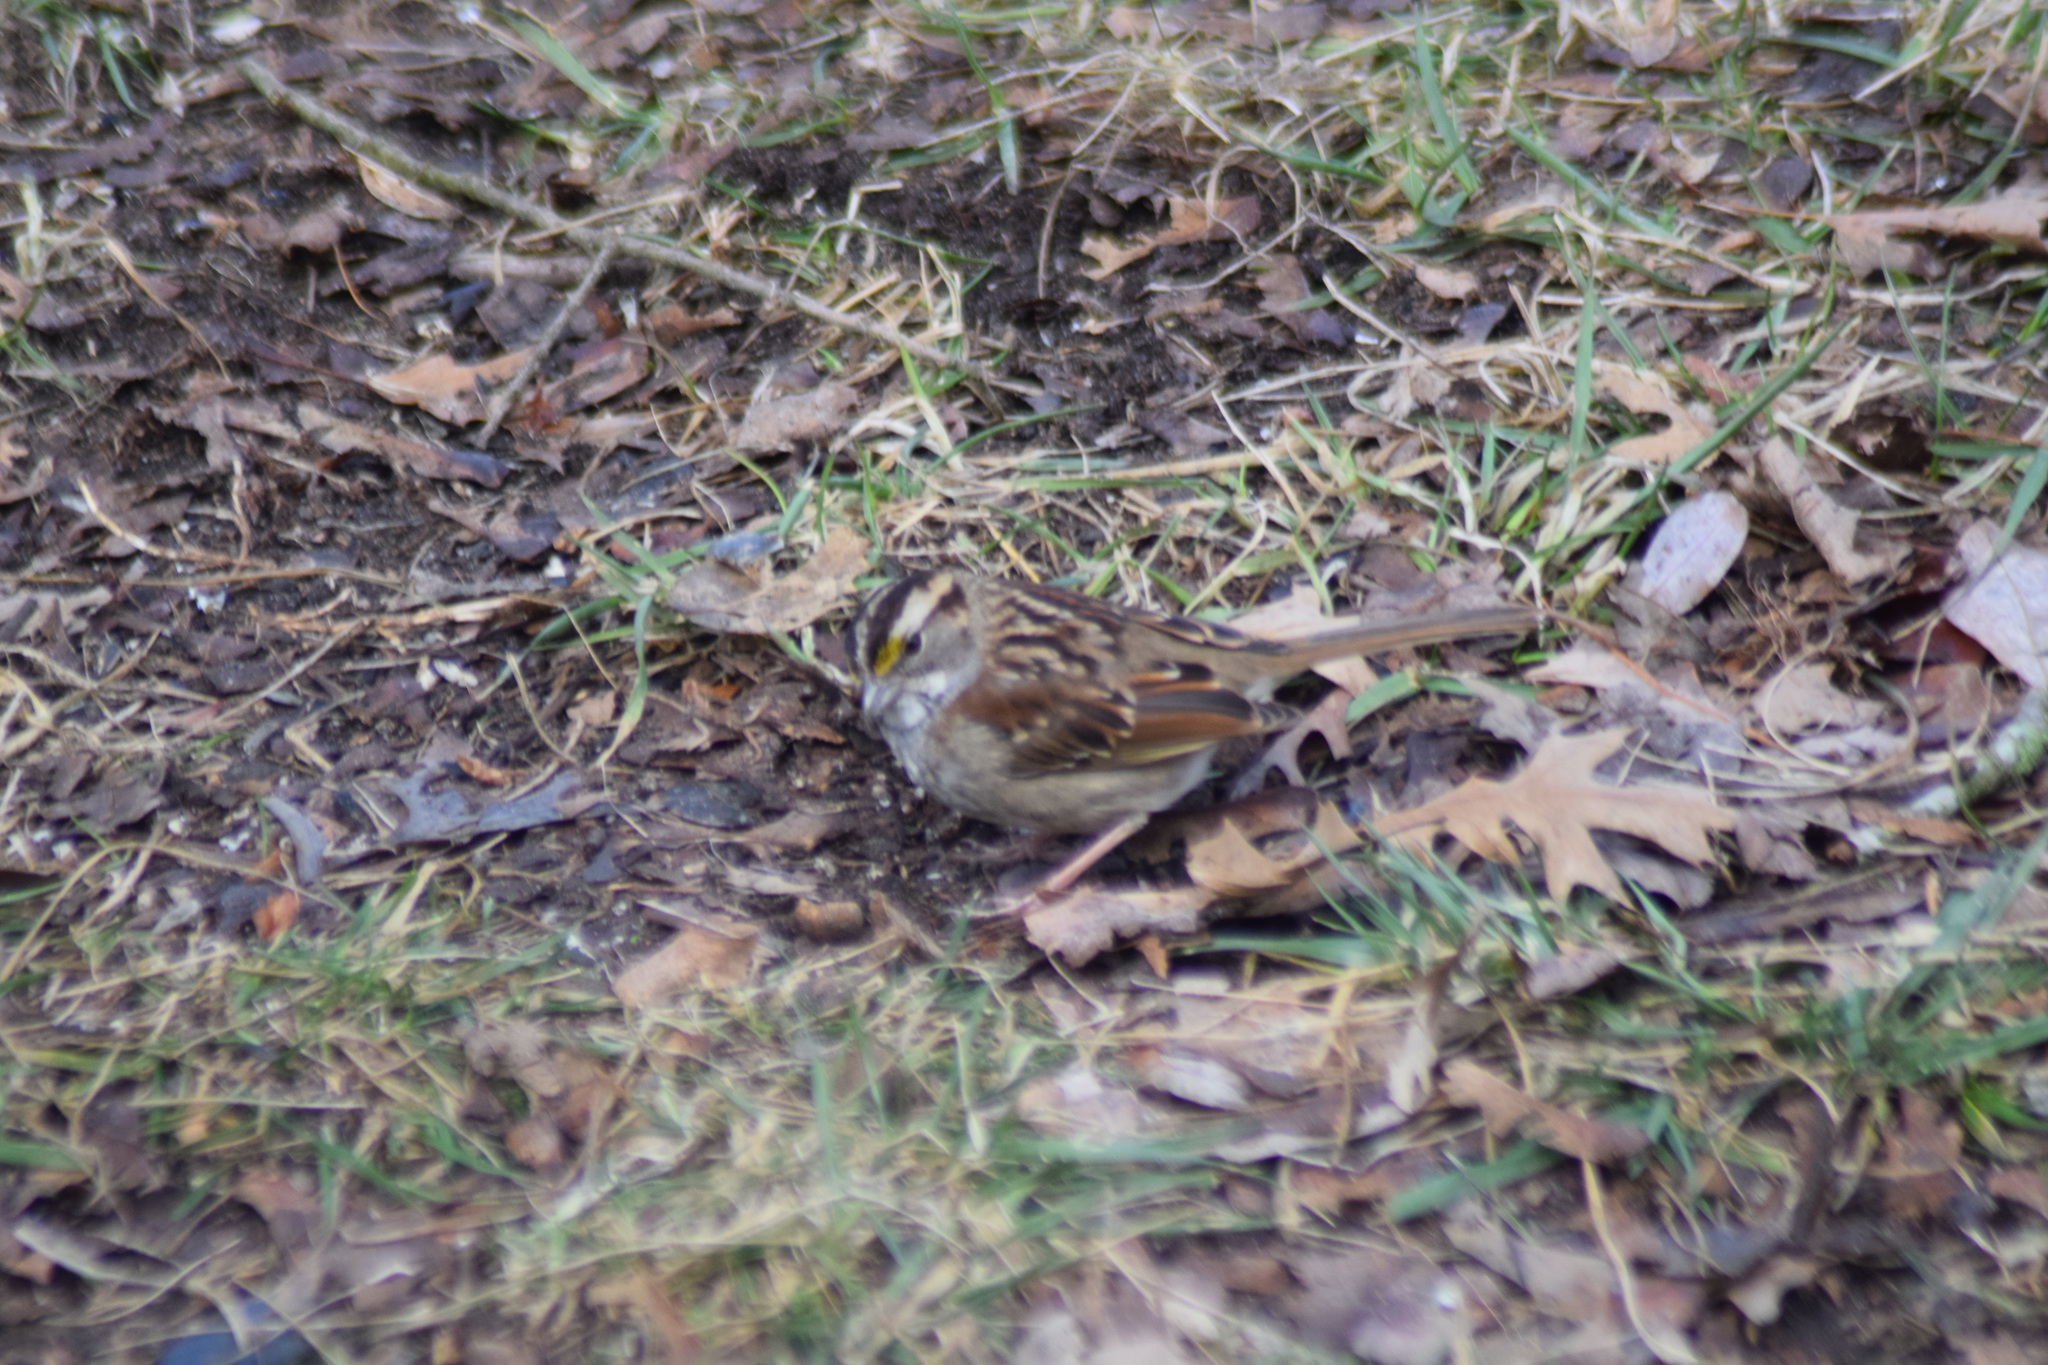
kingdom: Animalia
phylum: Chordata
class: Aves
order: Passeriformes
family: Passerellidae
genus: Zonotrichia
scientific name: Zonotrichia albicollis
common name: White-throated sparrow
